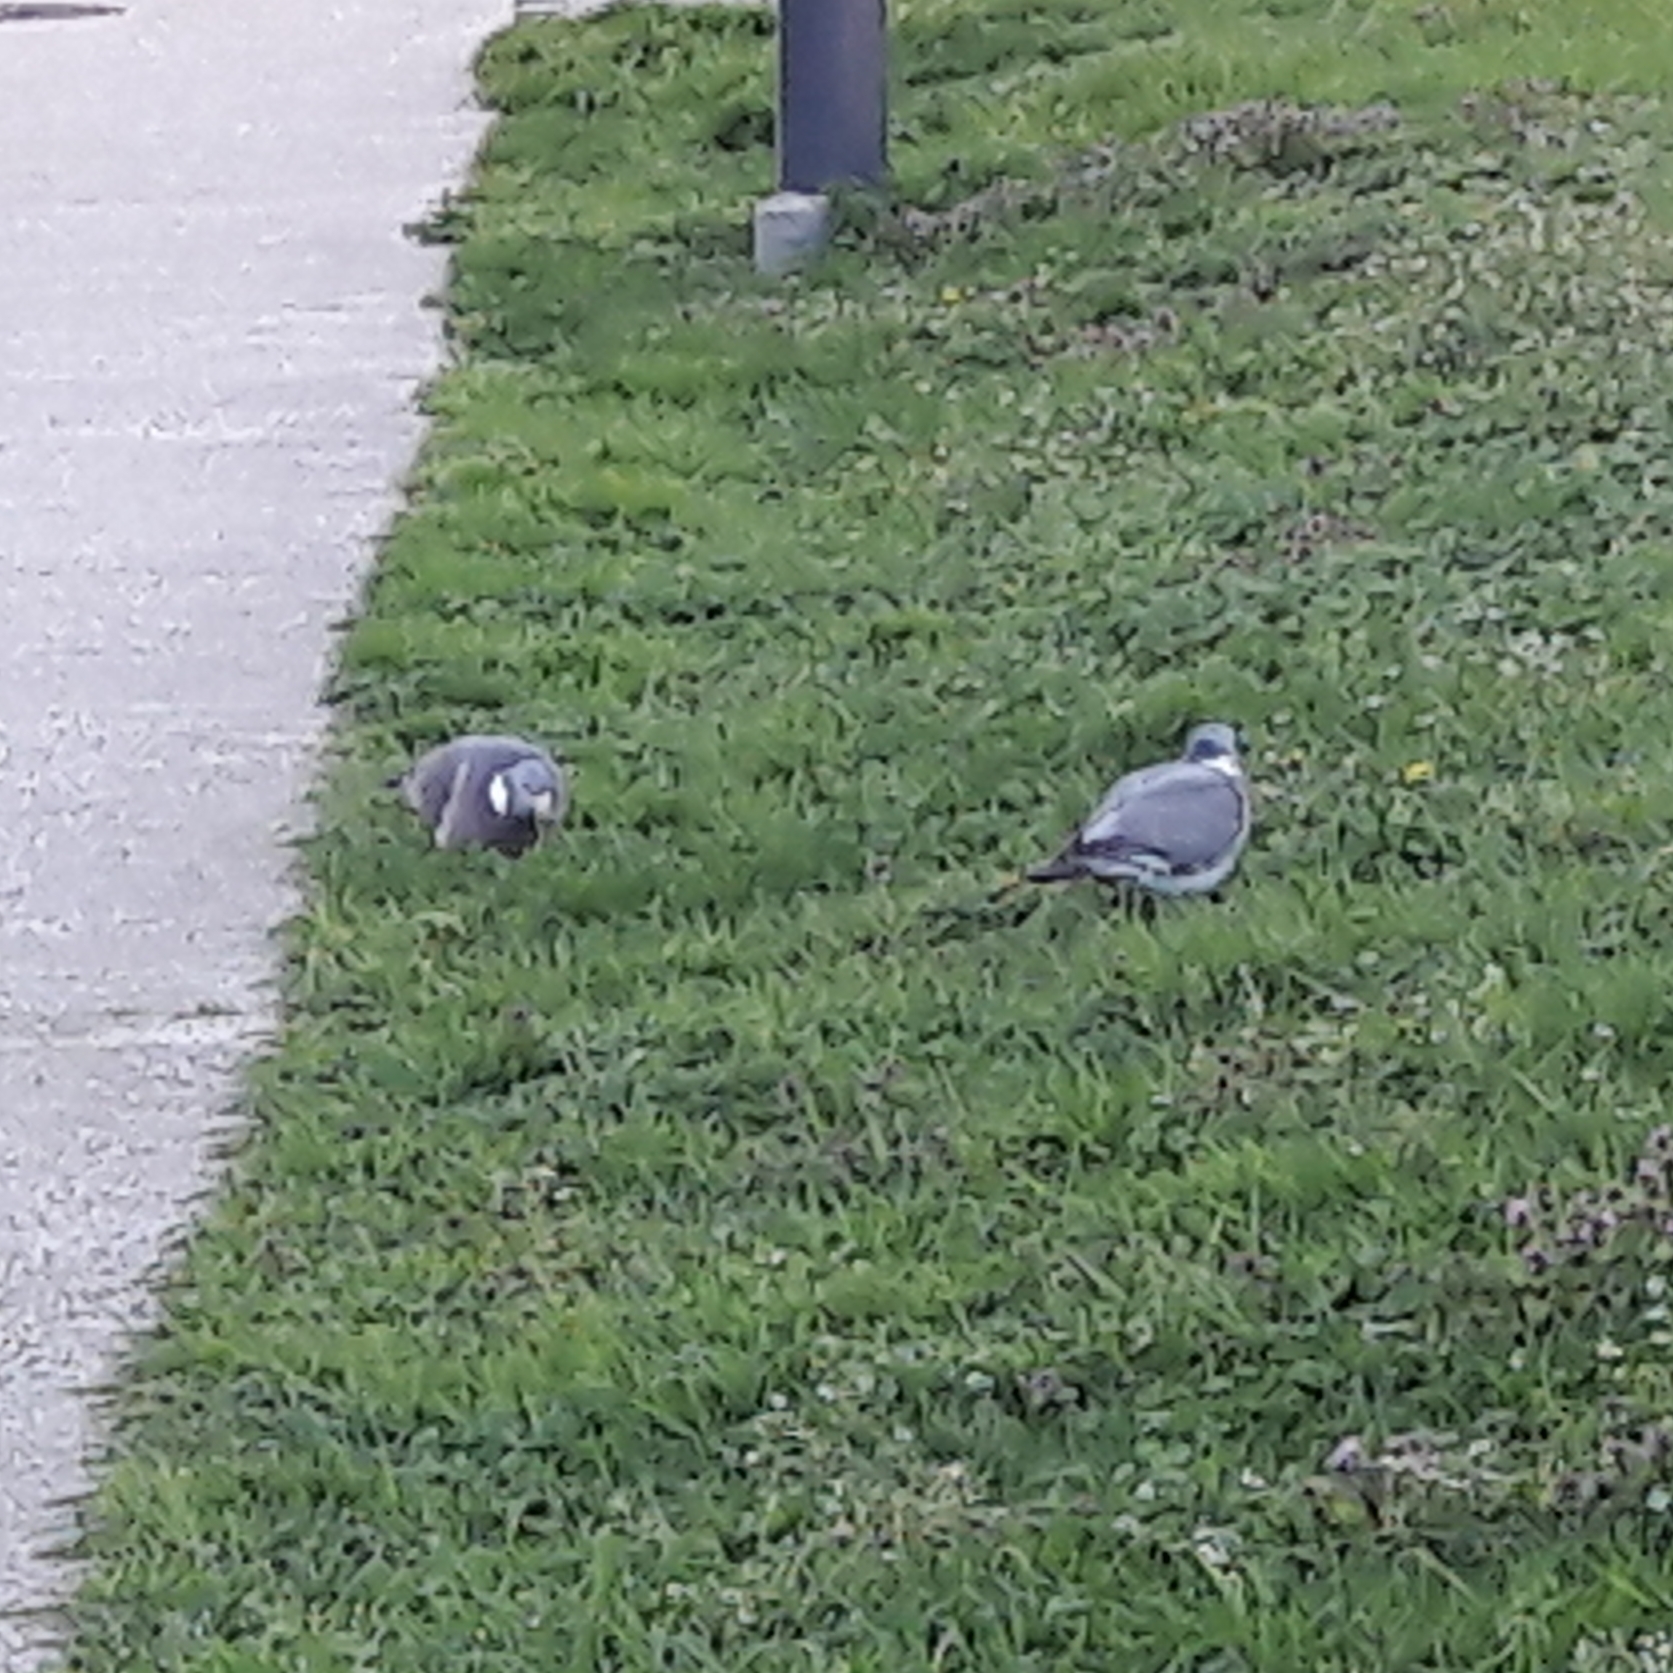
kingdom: Animalia
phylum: Chordata
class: Aves
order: Columbiformes
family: Columbidae
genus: Columba
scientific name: Columba palumbus
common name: Common wood pigeon
